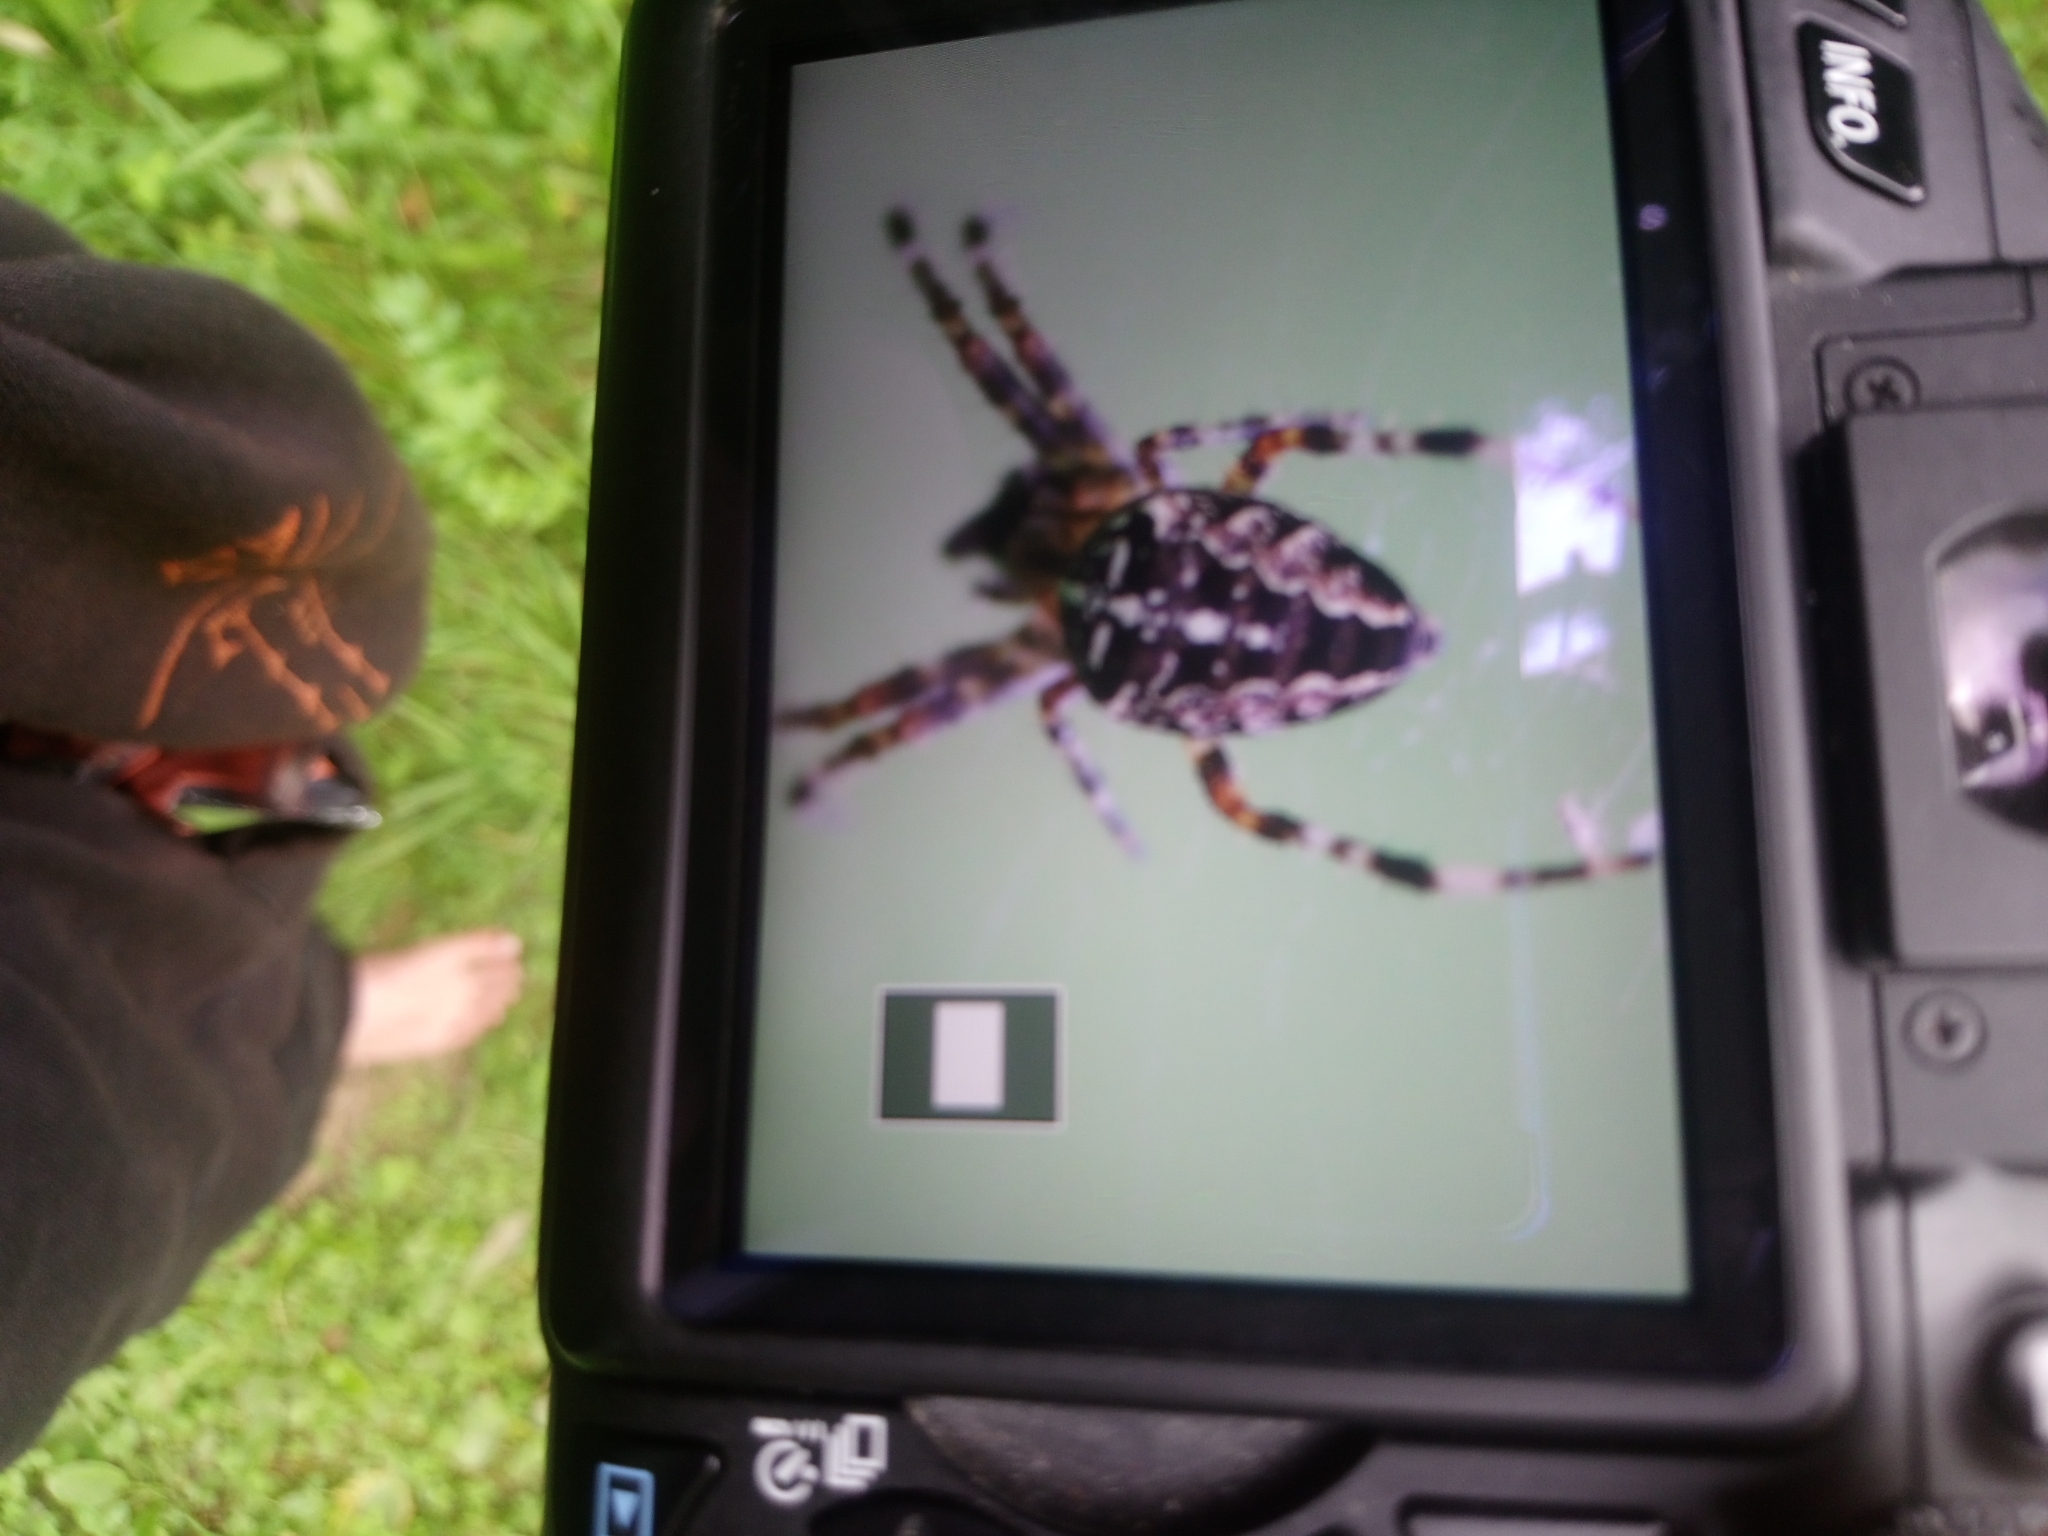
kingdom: Animalia
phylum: Arthropoda
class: Arachnida
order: Araneae
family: Araneidae
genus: Araneus
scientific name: Araneus diadematus
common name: Cross orbweaver
